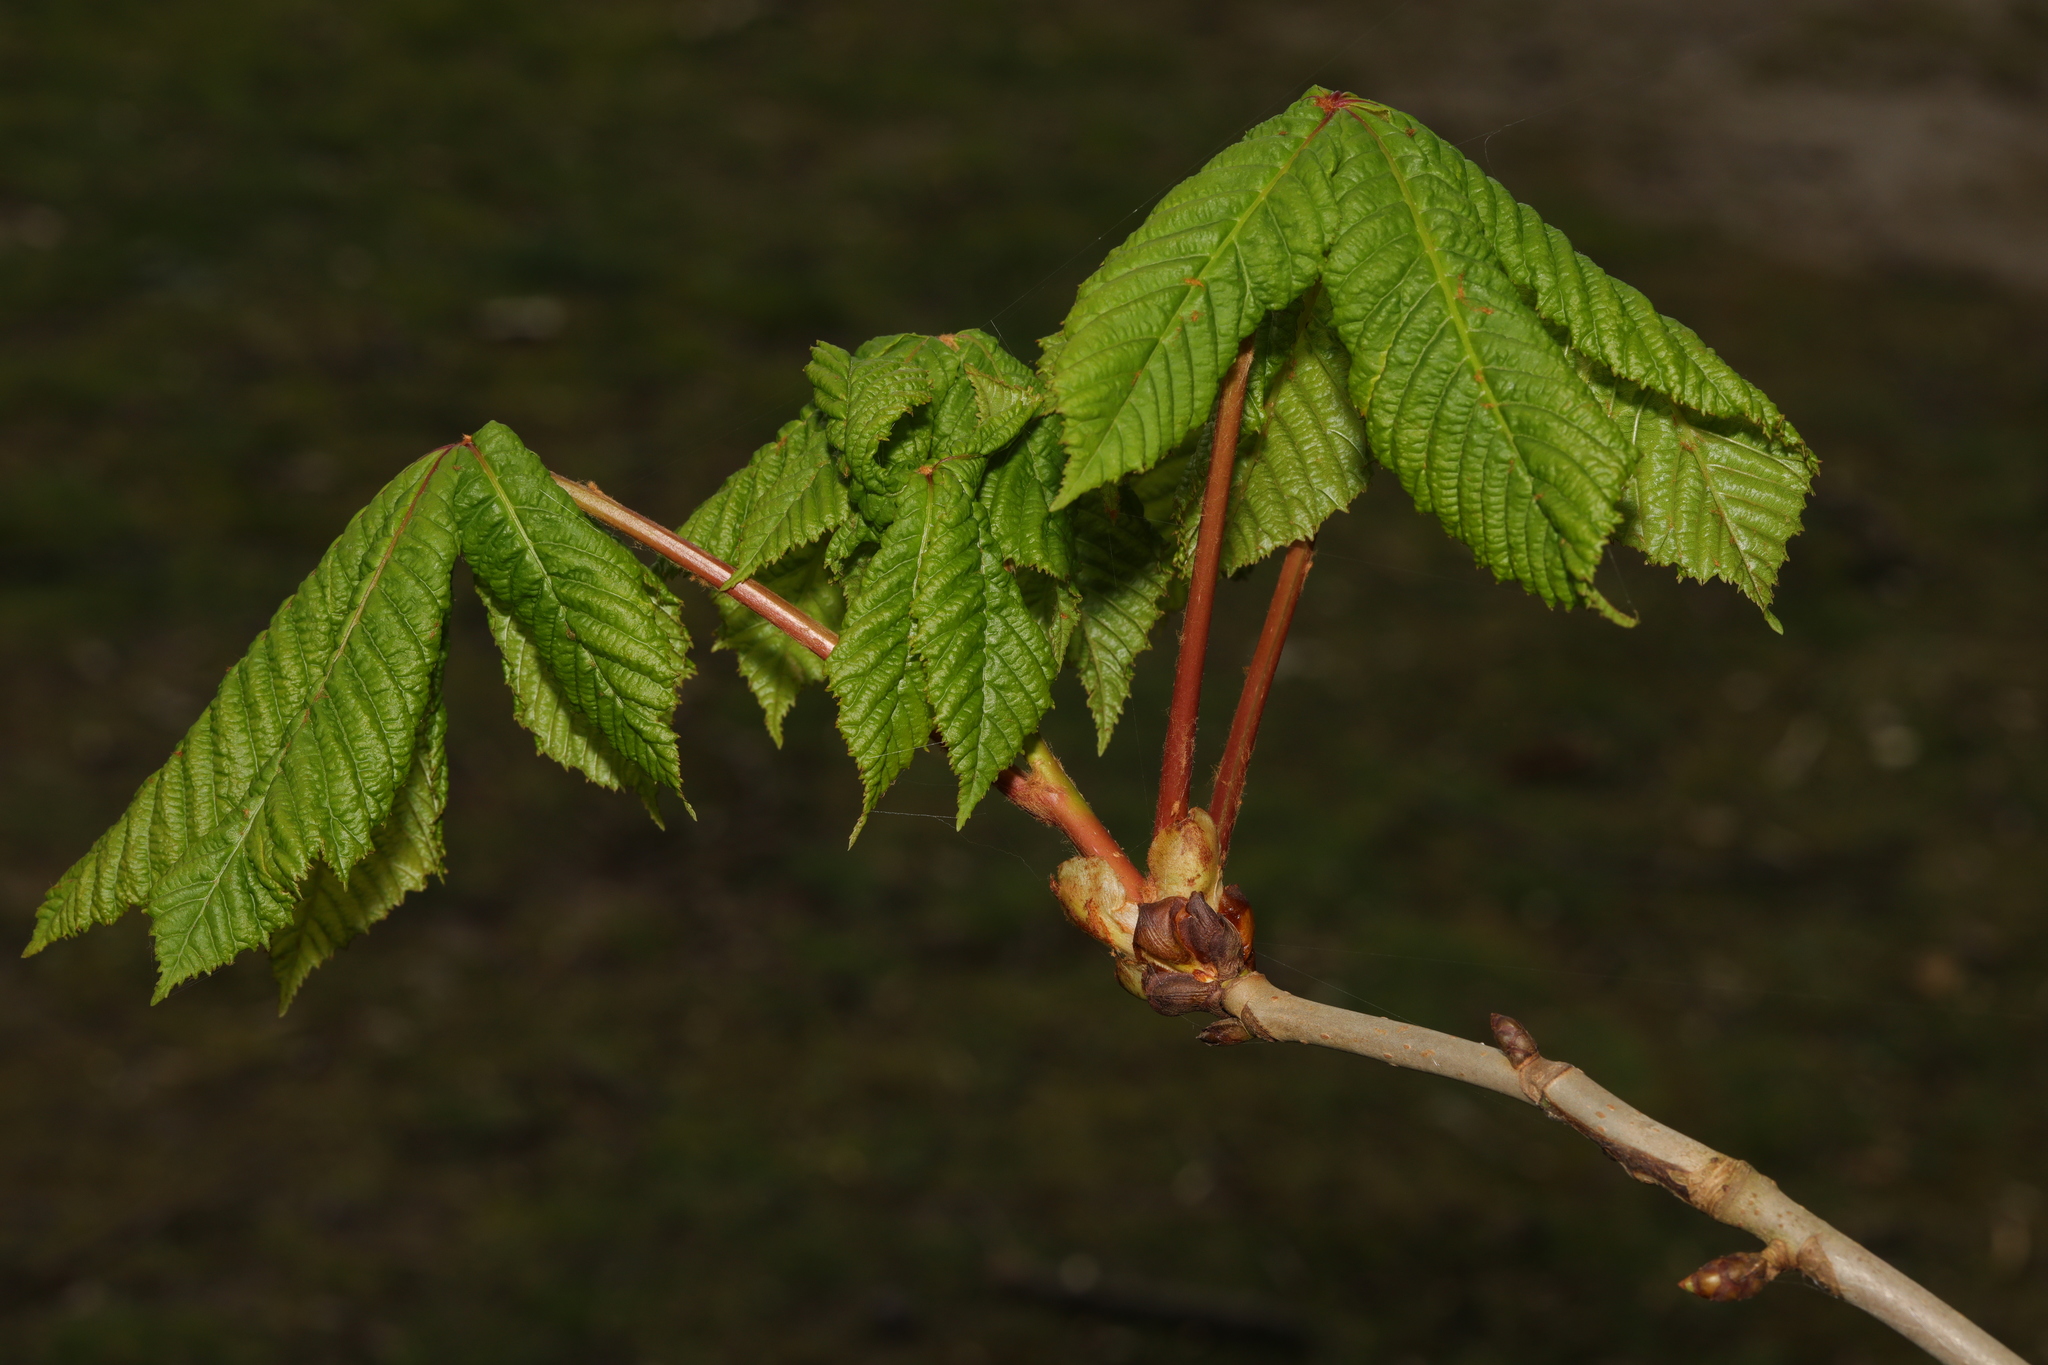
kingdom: Plantae
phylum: Tracheophyta
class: Magnoliopsida
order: Sapindales
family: Sapindaceae
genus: Aesculus
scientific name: Aesculus hippocastanum
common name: Horse-chestnut
